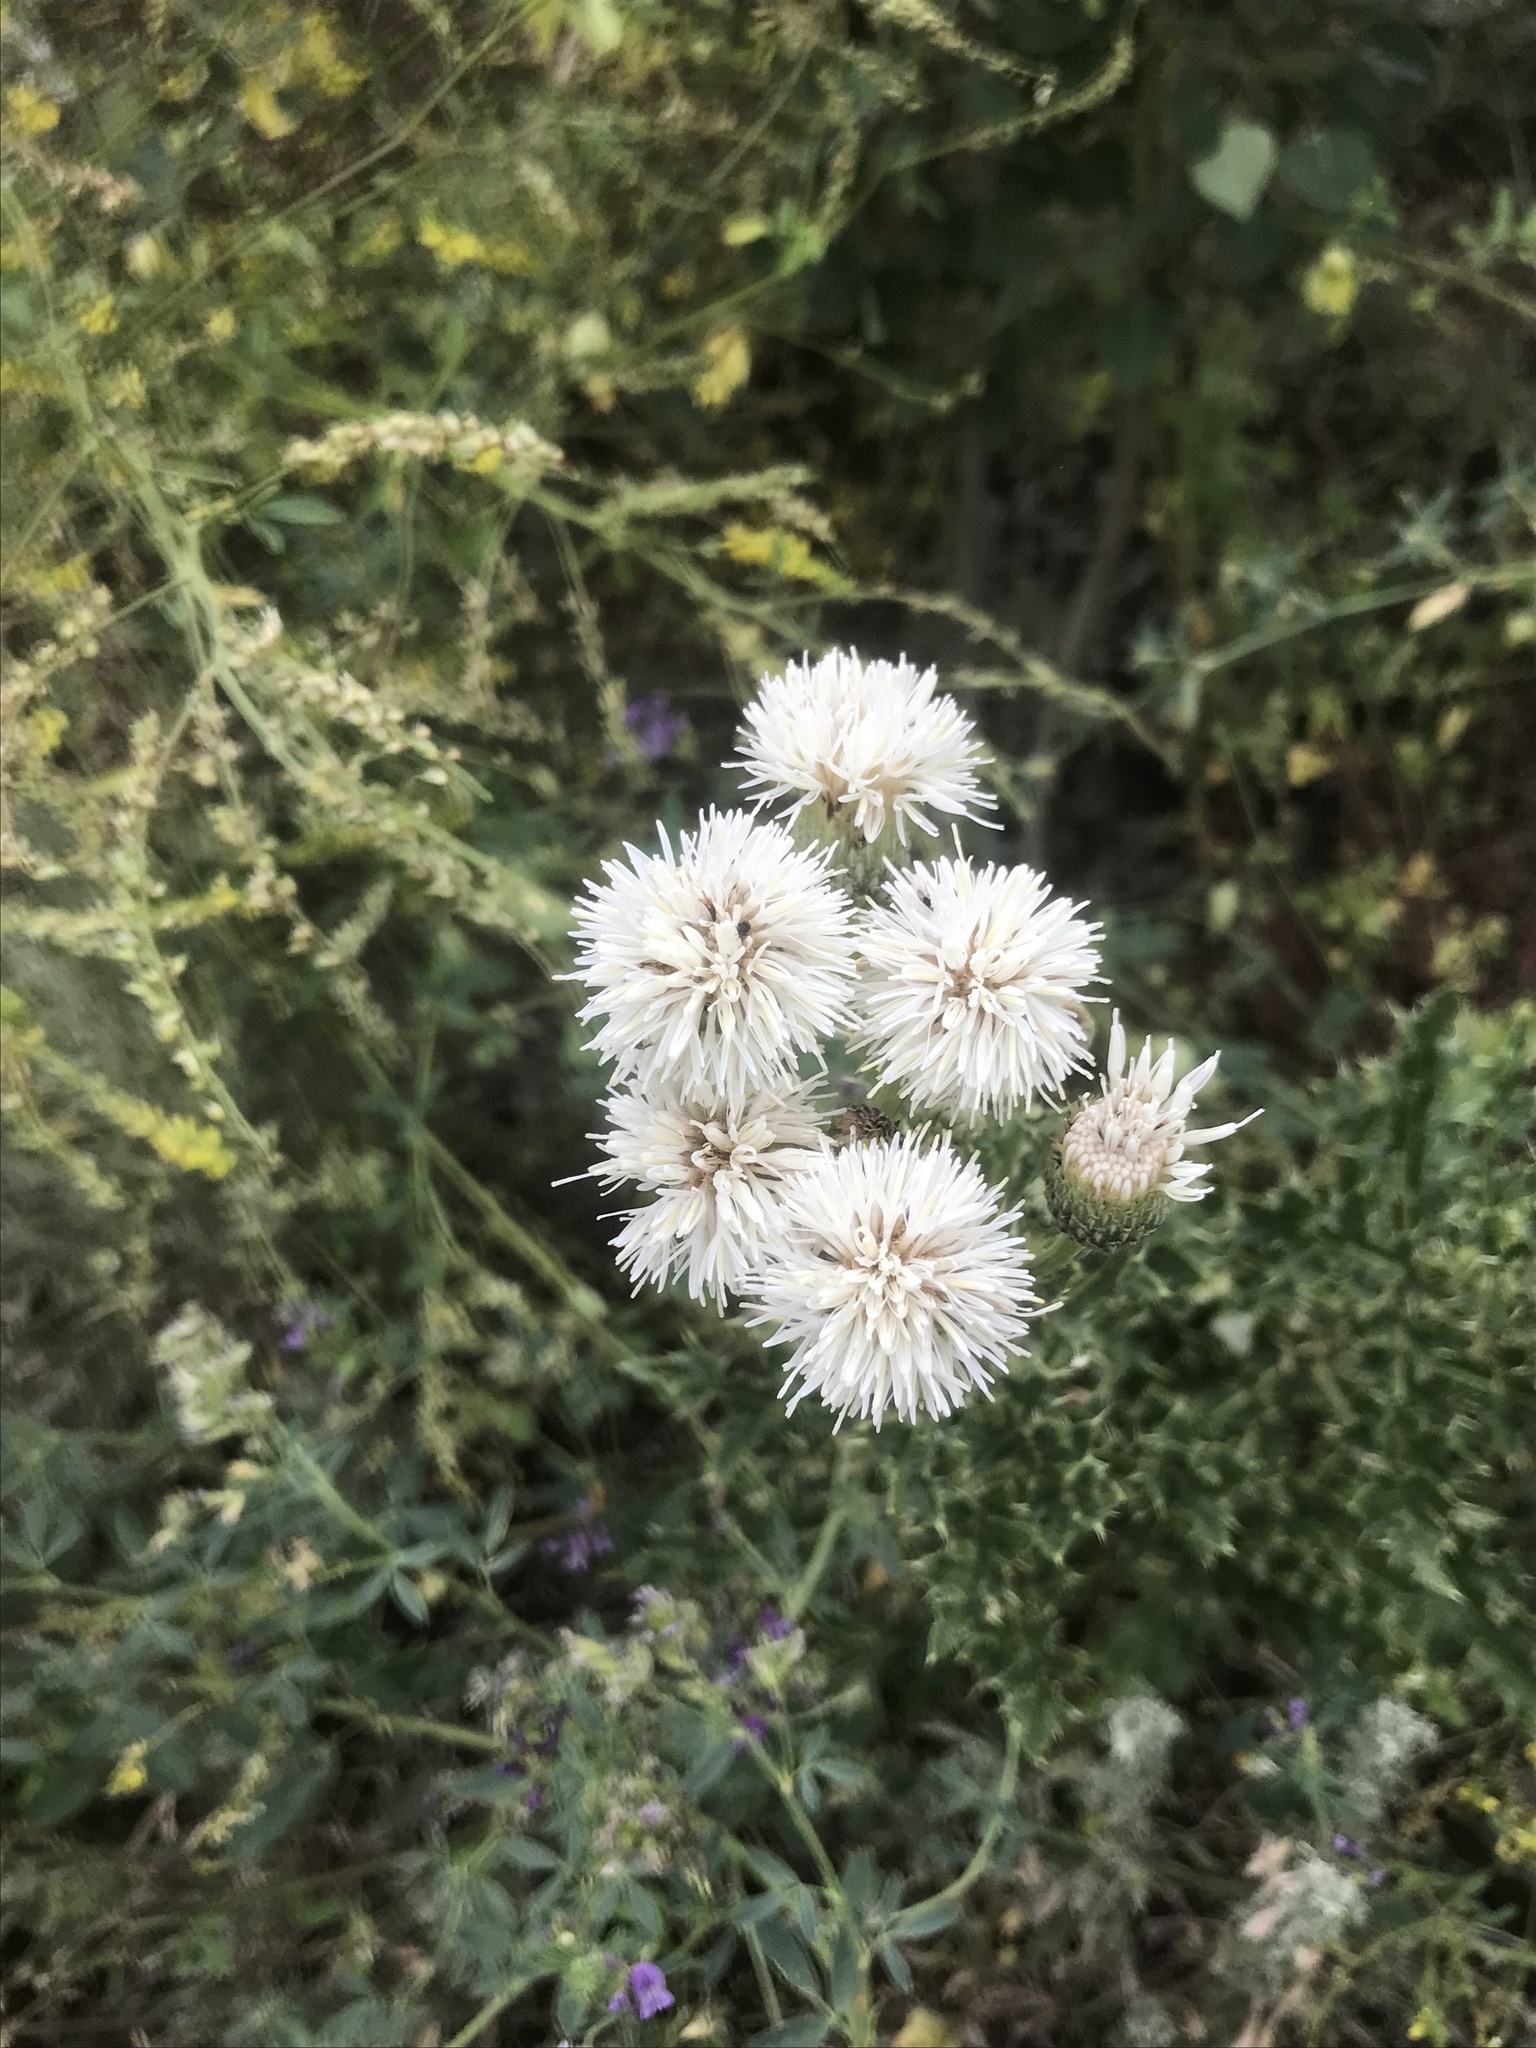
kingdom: Plantae
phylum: Tracheophyta
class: Magnoliopsida
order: Asterales
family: Asteraceae
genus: Cirsium
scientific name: Cirsium arvense
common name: Creeping thistle
